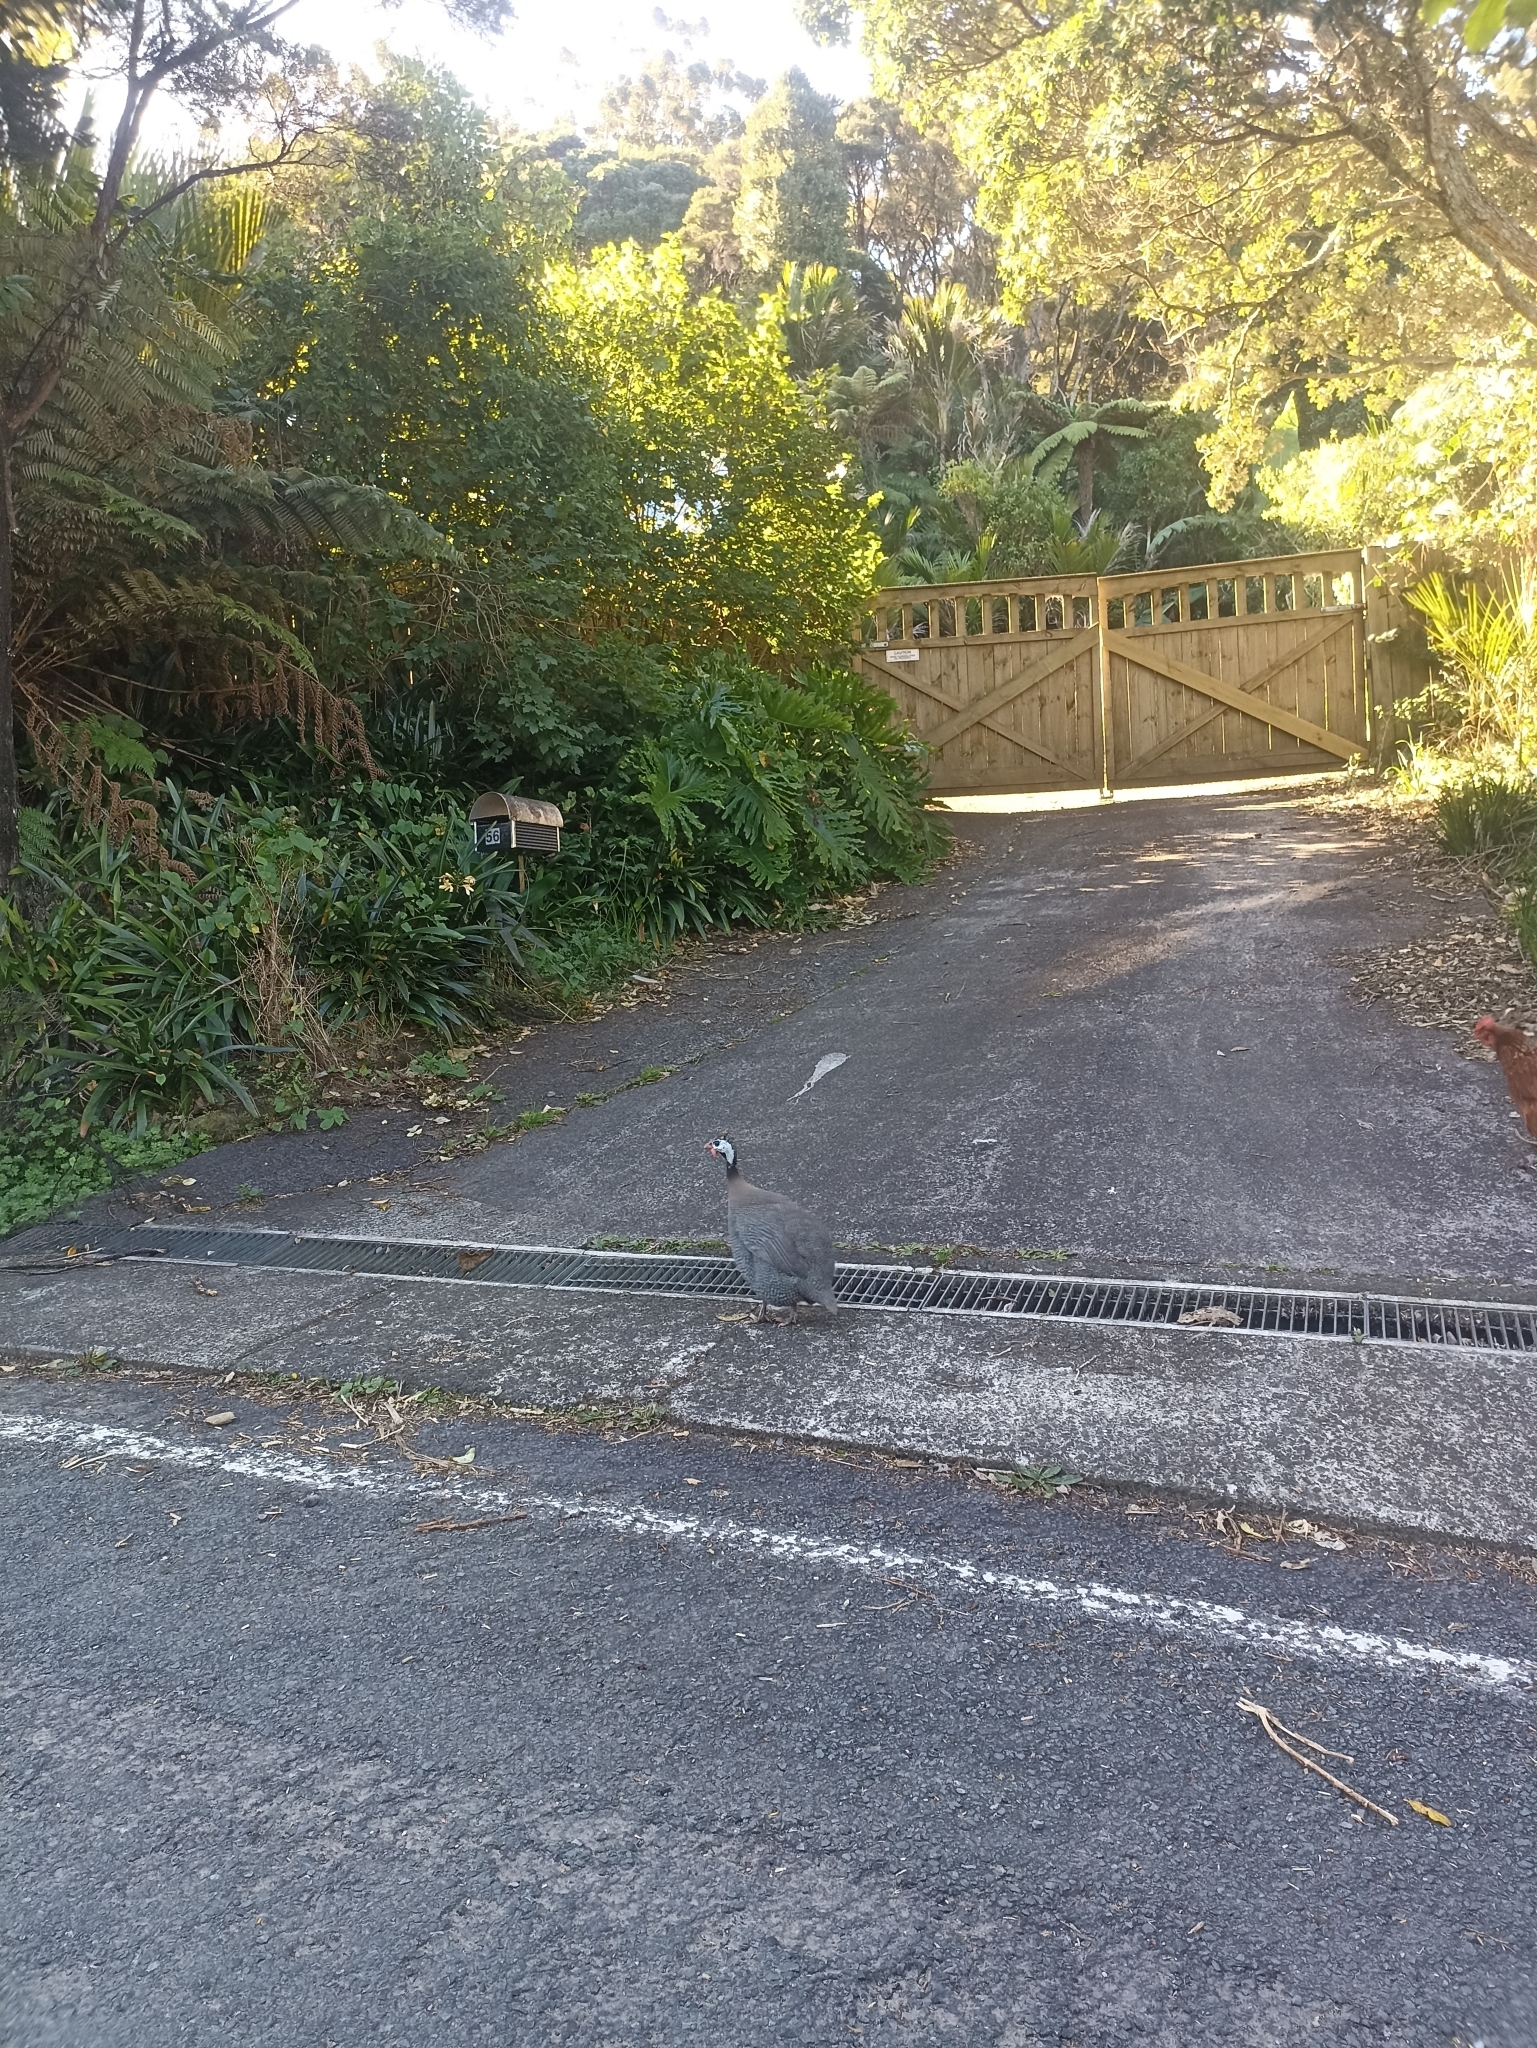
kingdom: Animalia
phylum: Chordata
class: Aves
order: Galliformes
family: Numididae
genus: Numida
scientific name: Numida meleagris
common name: Helmeted guineafowl
